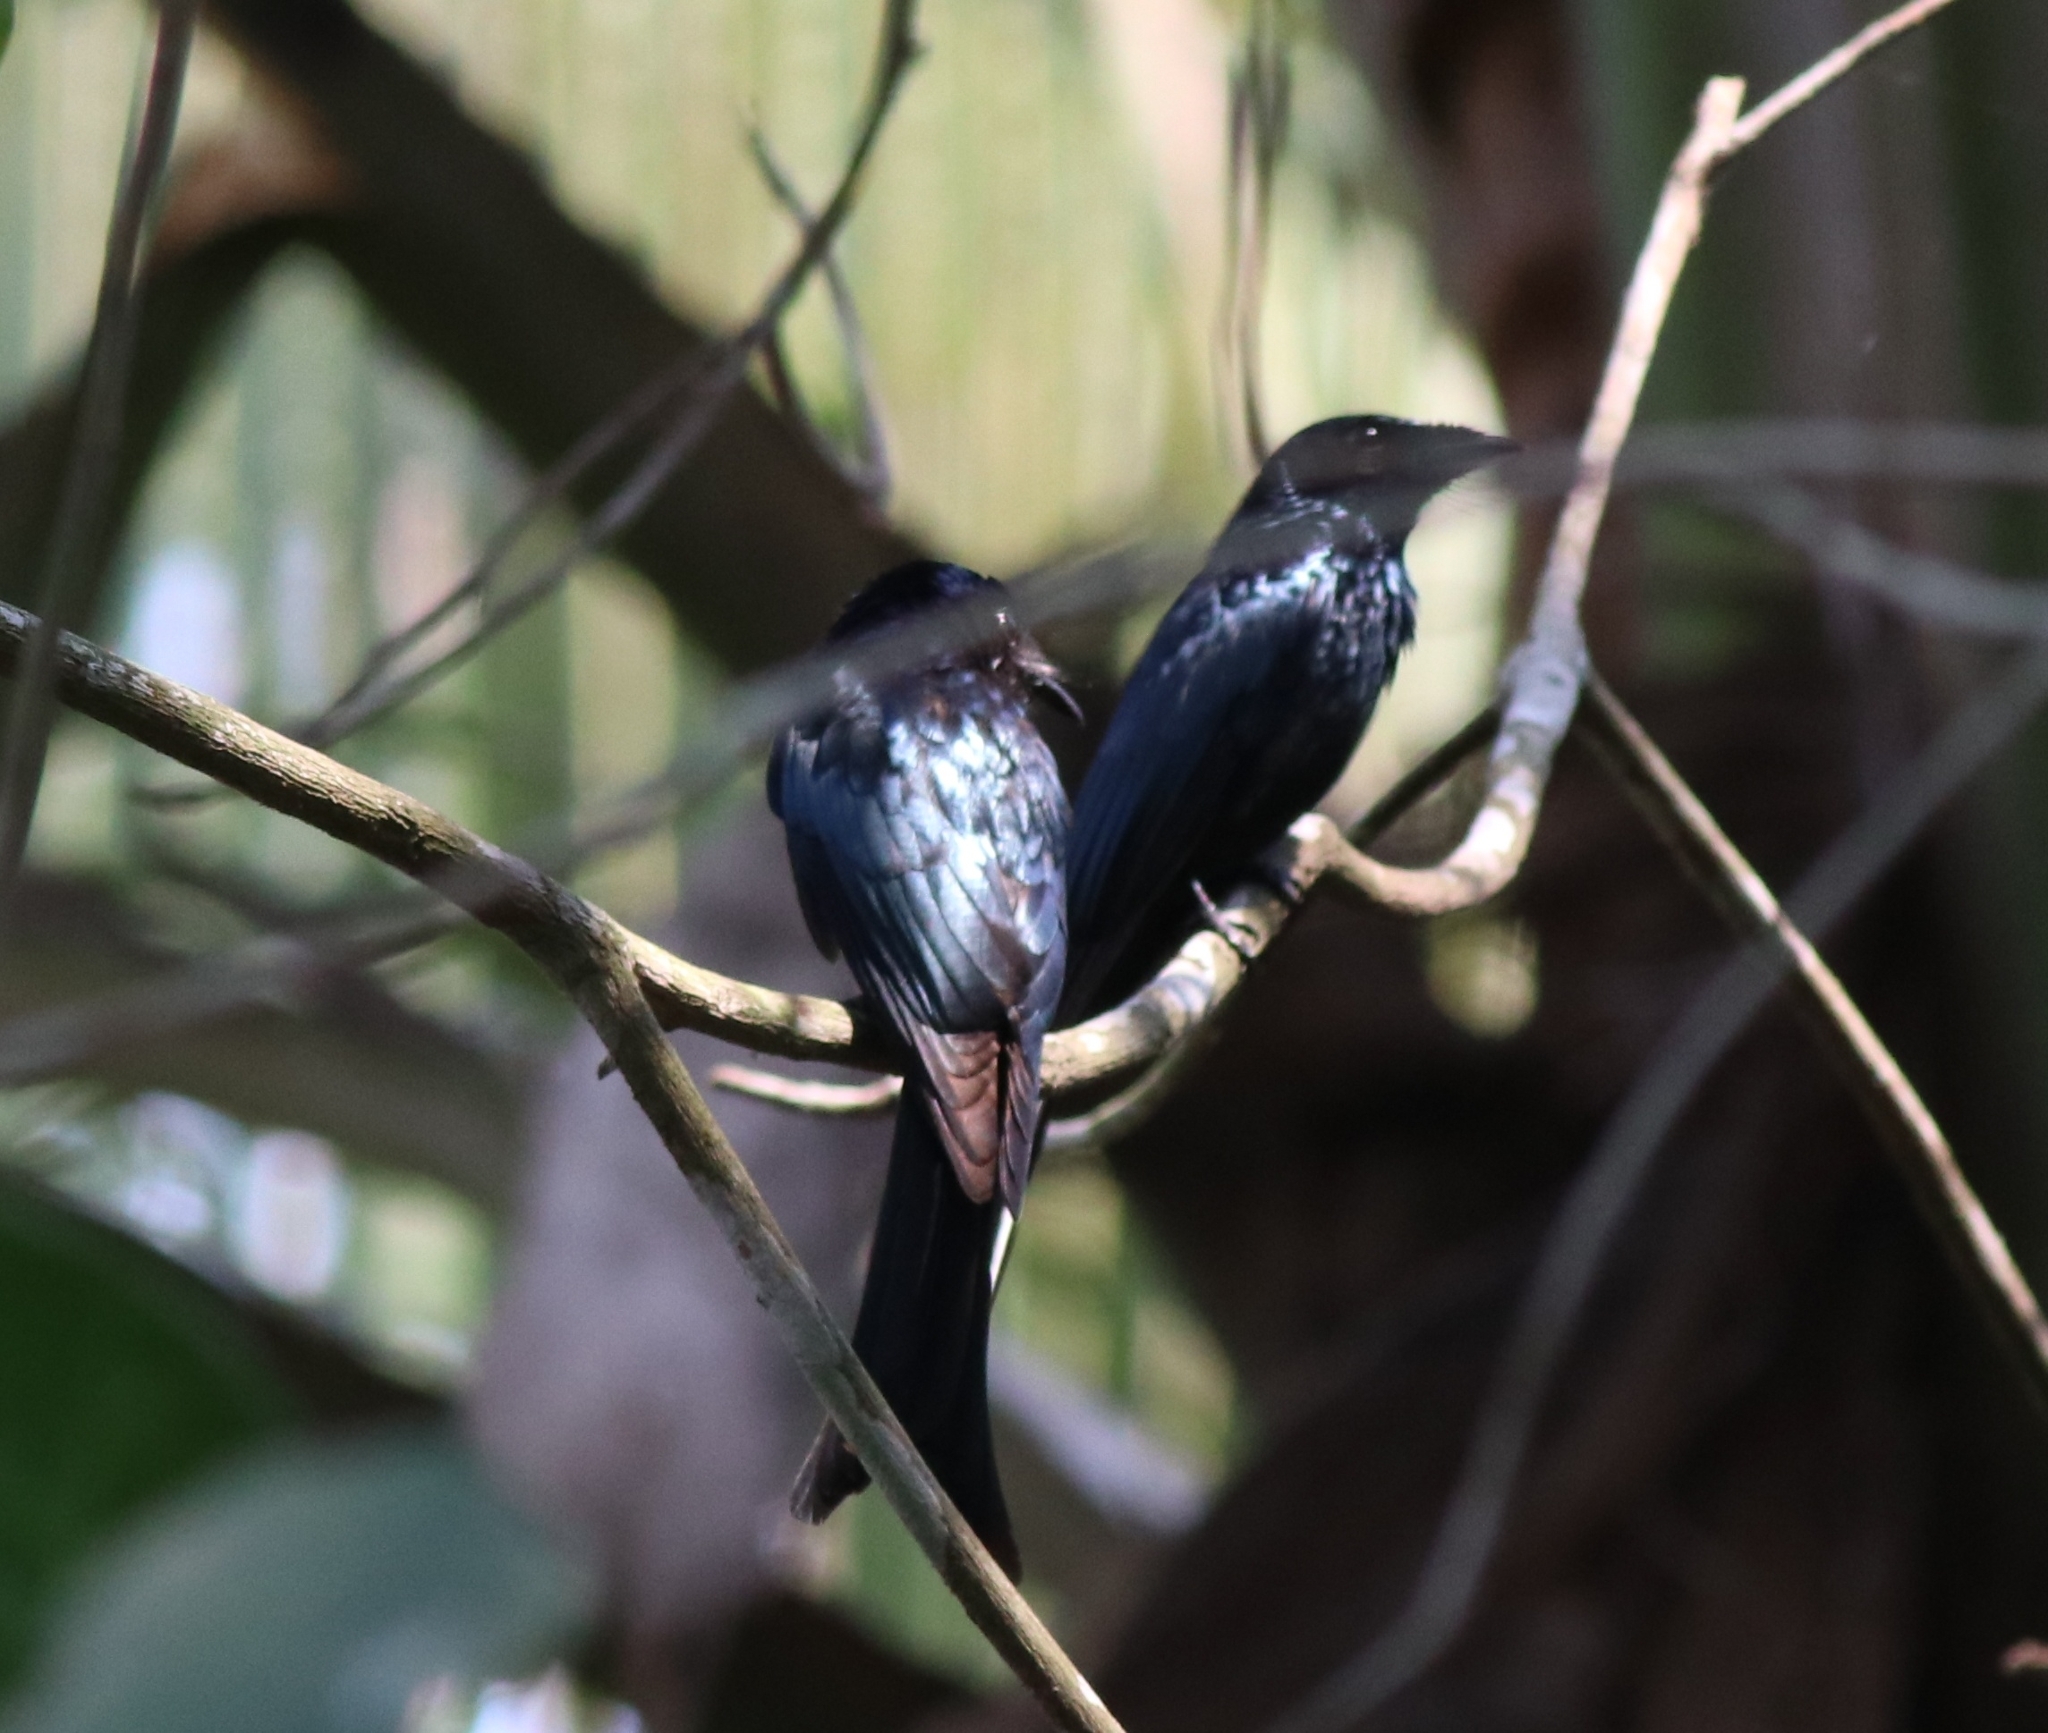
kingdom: Animalia
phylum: Chordata
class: Aves
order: Passeriformes
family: Dicruridae
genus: Dicrurus
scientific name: Dicrurus aeneus
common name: Bronzed drongo
